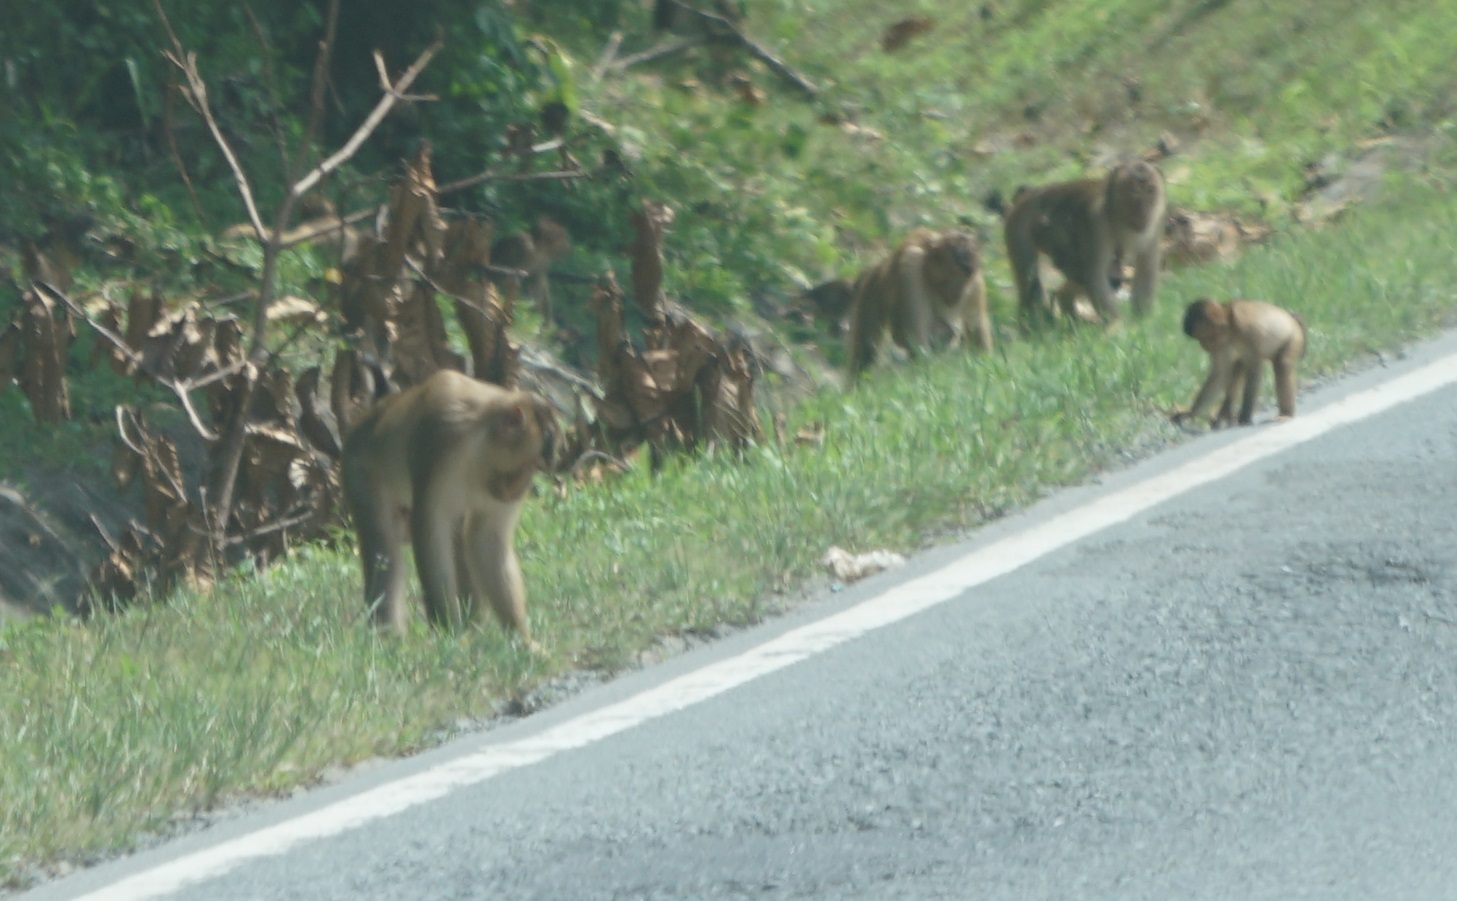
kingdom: Animalia
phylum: Chordata
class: Mammalia
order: Primates
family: Cercopithecidae
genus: Macaca
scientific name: Macaca nemestrina
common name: Southern pig-tailed macaque
